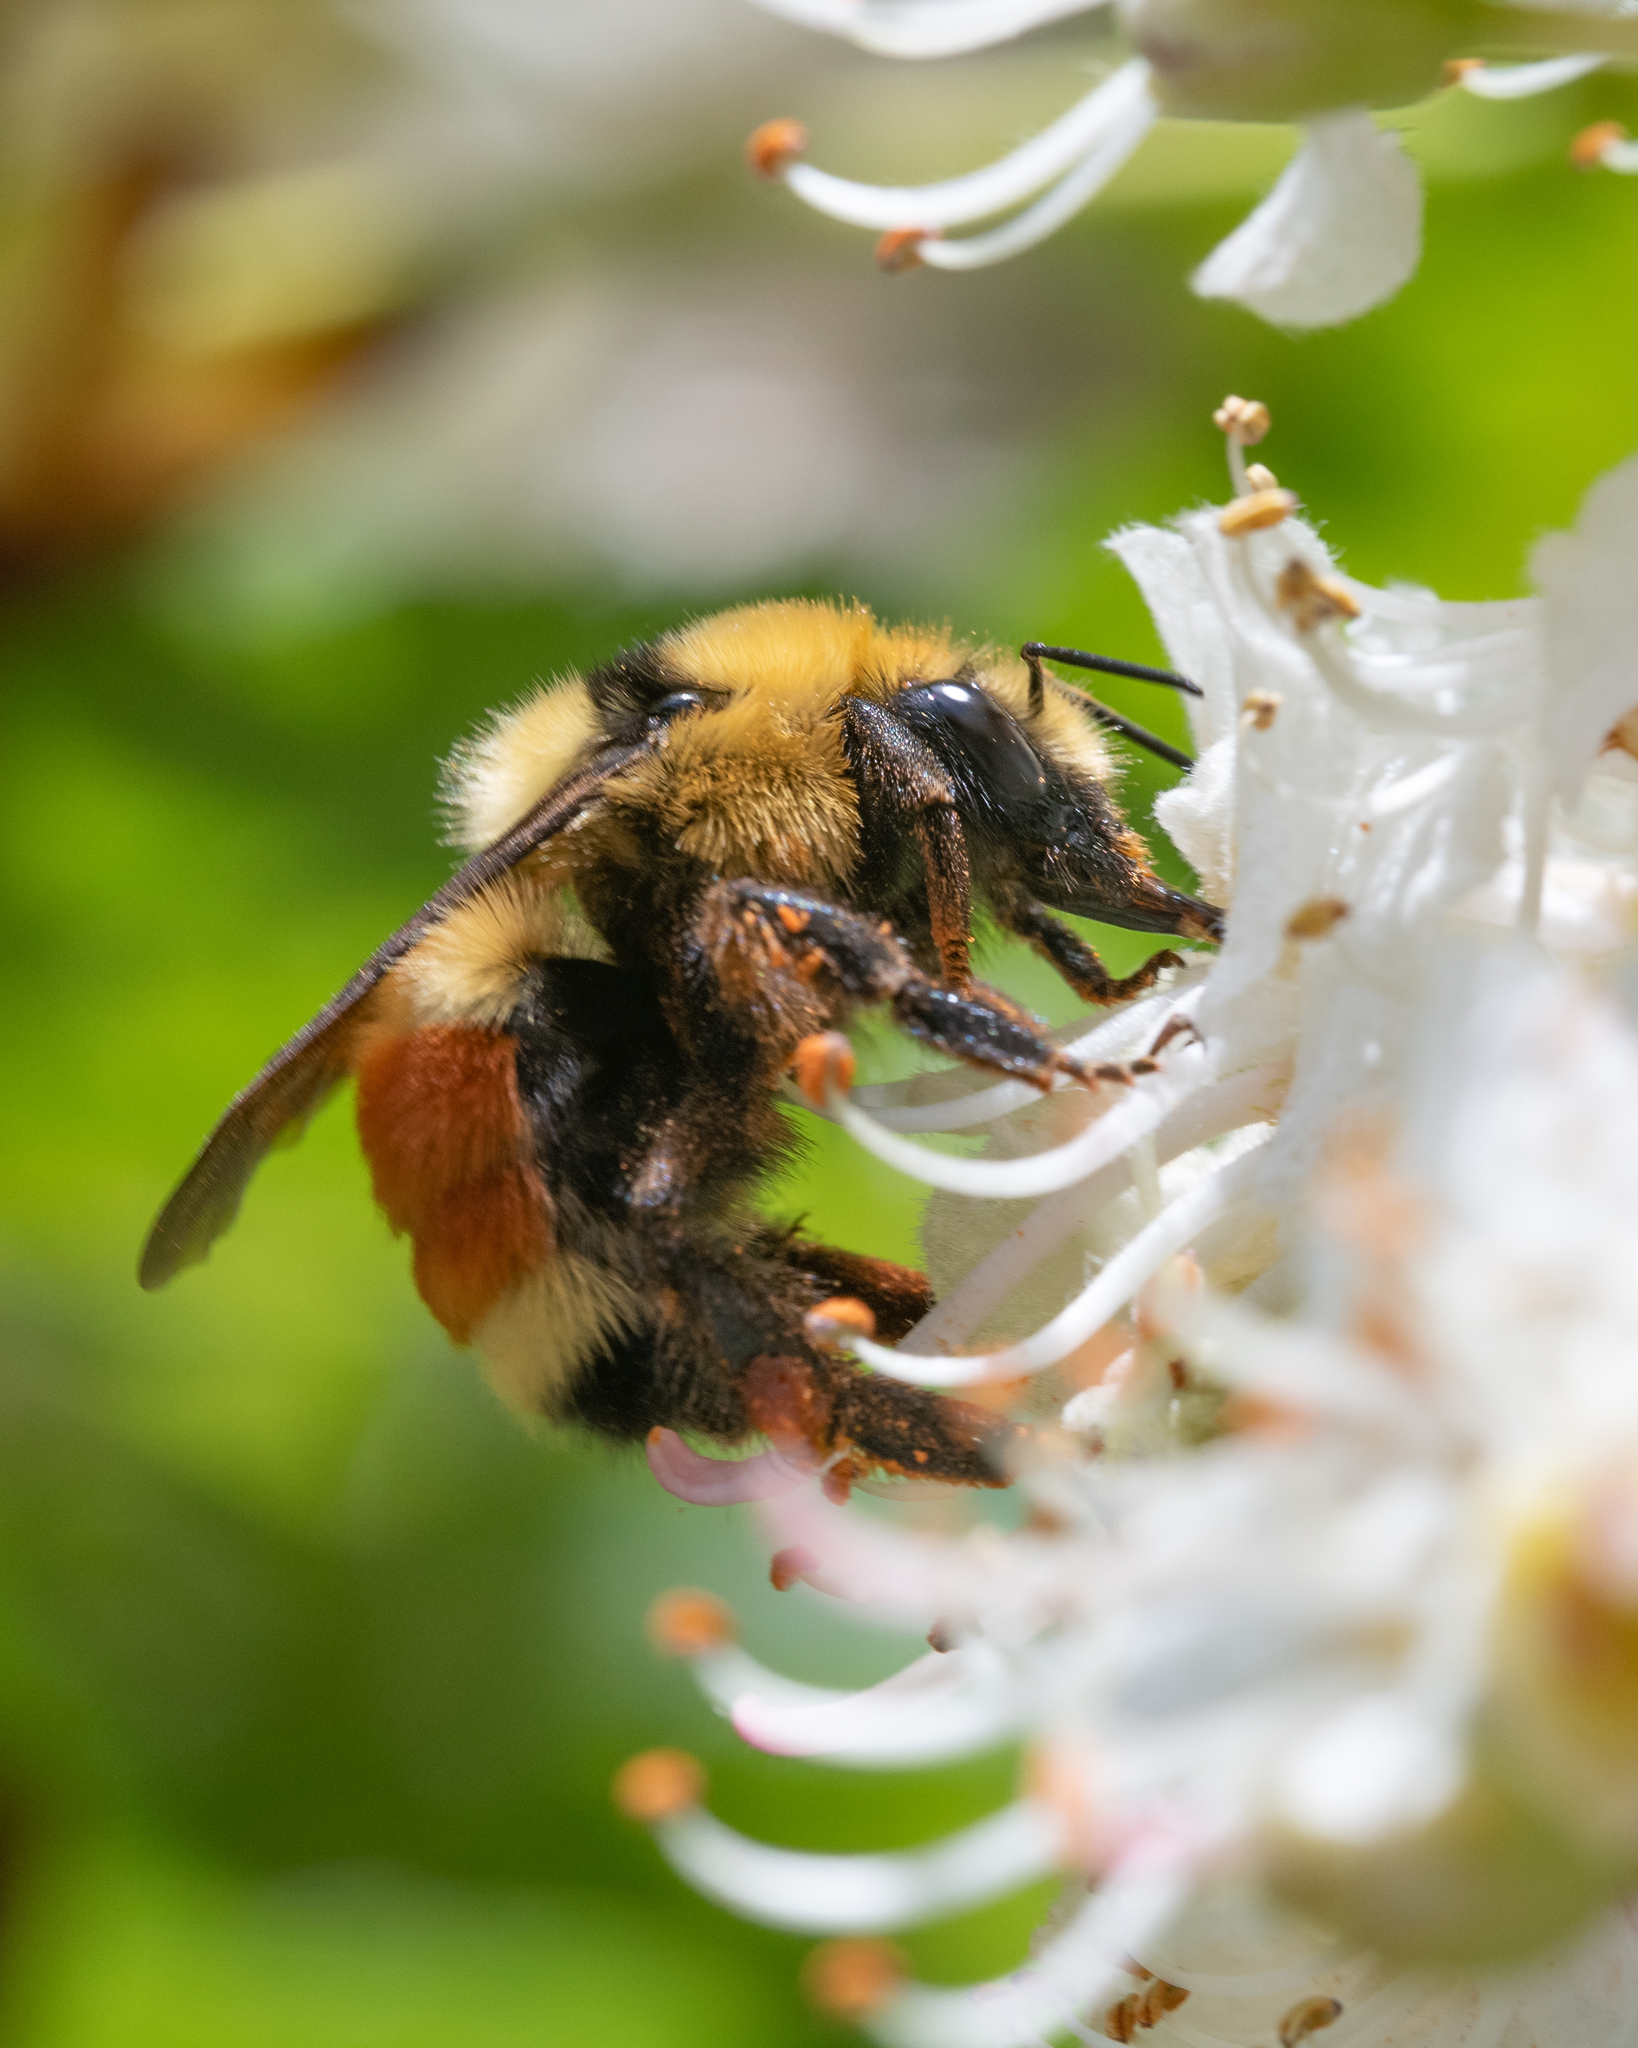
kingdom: Animalia
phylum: Arthropoda
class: Insecta
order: Hymenoptera
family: Apidae
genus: Bombus
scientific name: Bombus huntii
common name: Hunt bumble bee
